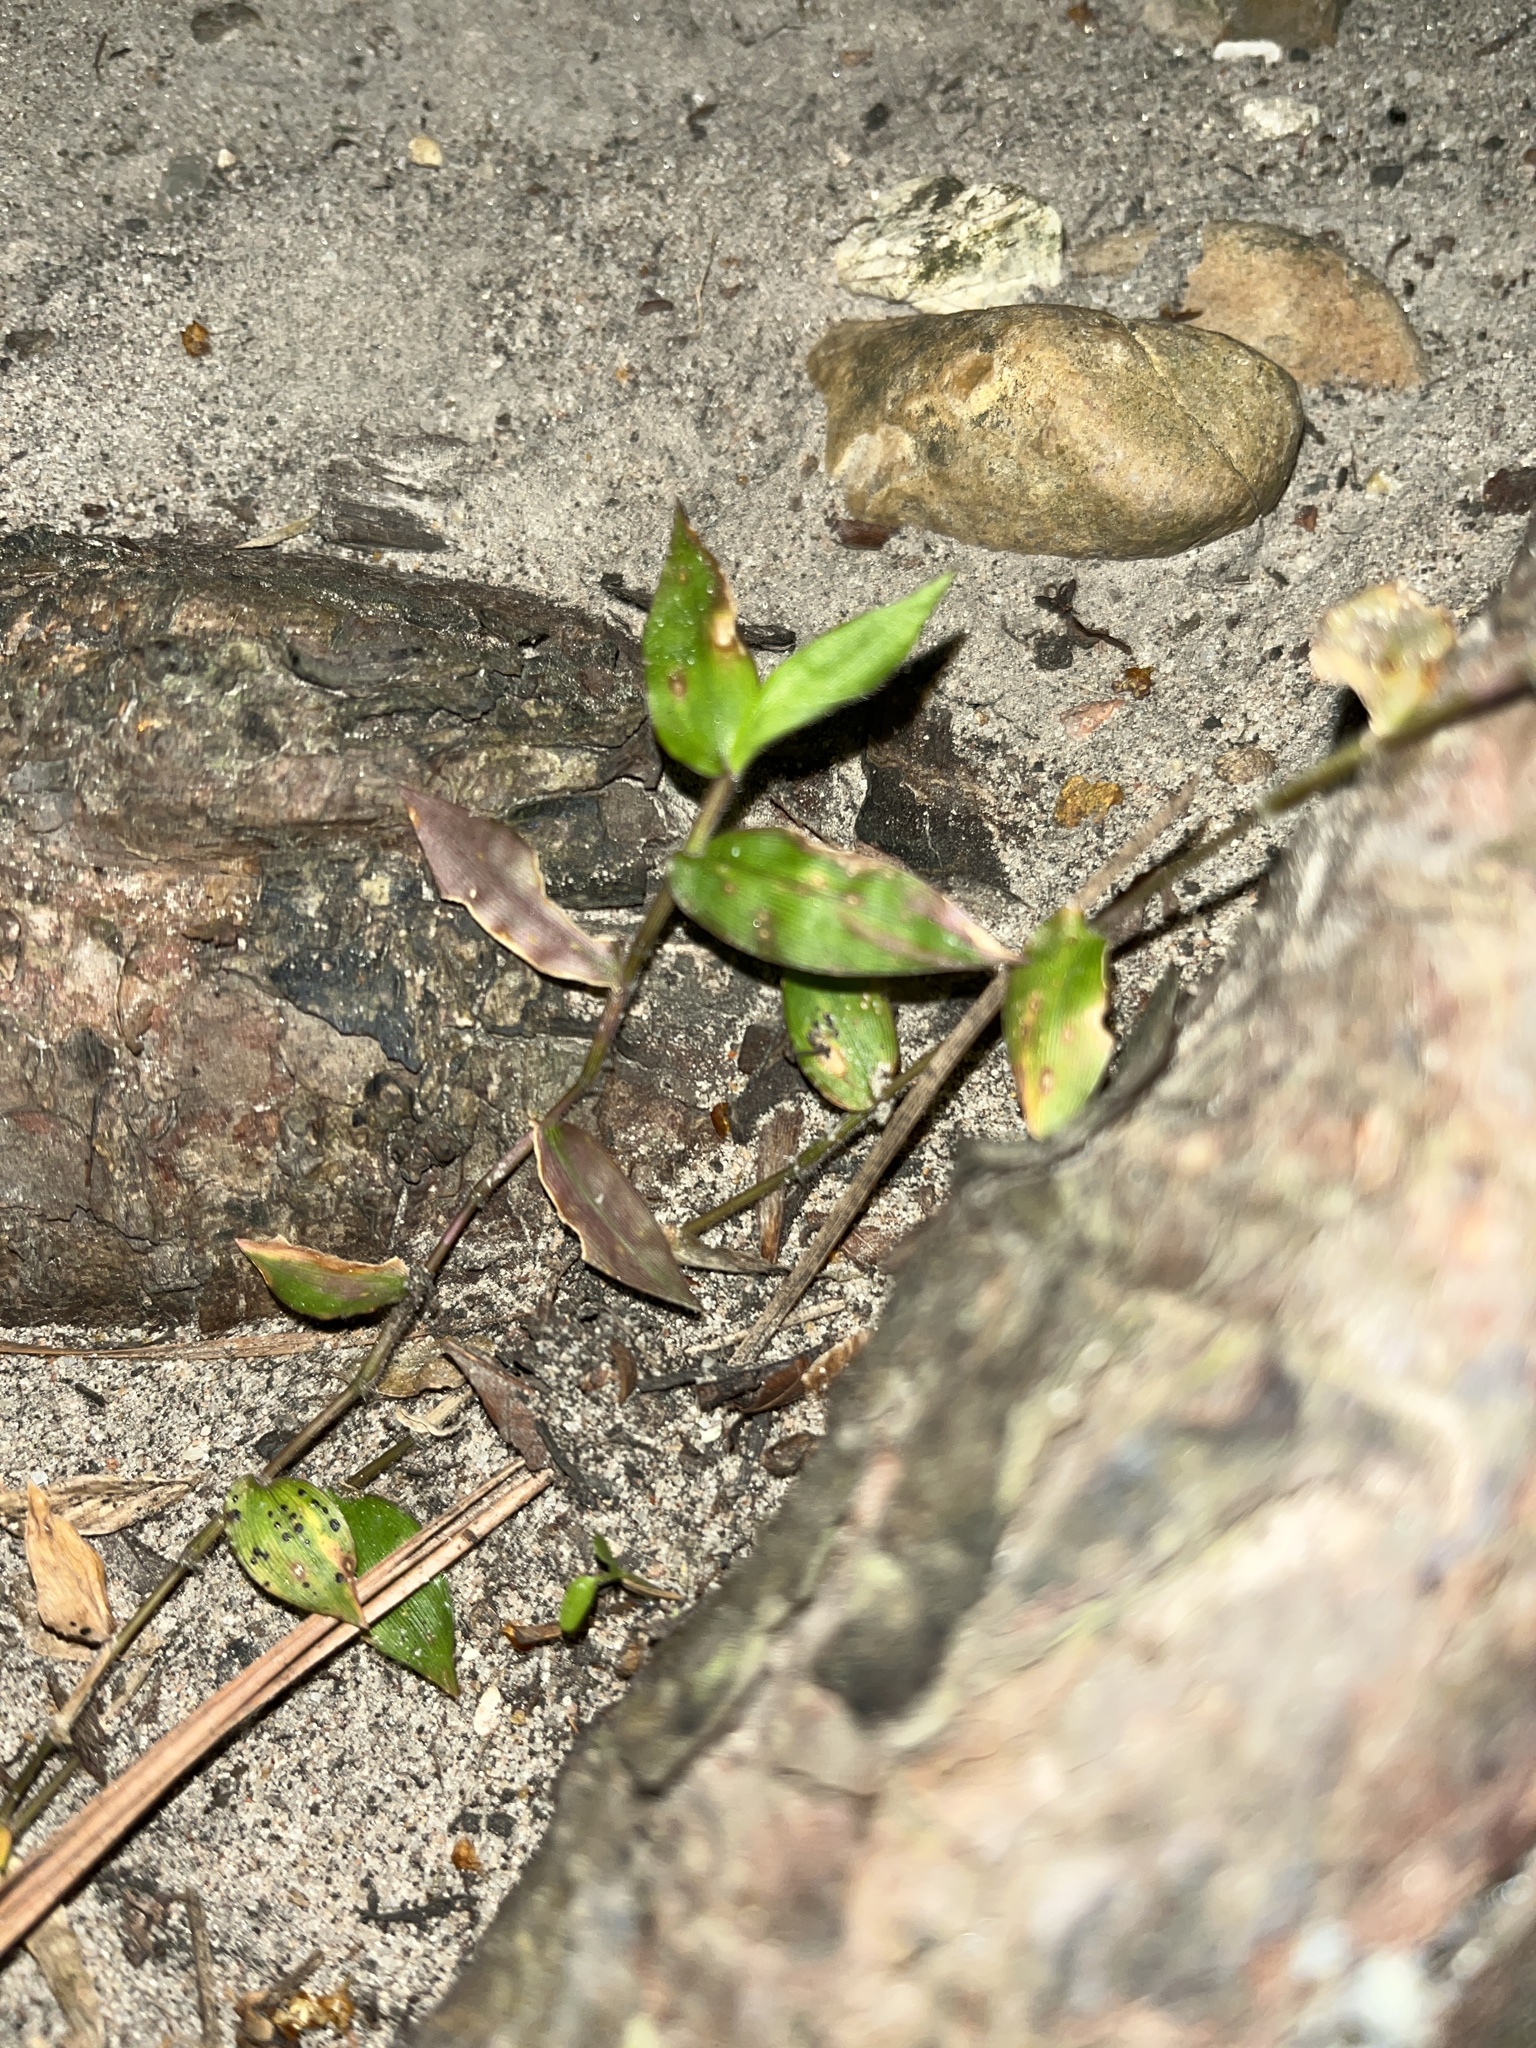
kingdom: Plantae
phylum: Tracheophyta
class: Liliopsida
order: Poales
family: Poaceae
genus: Oplismenus
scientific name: Oplismenus hirtellus
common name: Basketgrass
